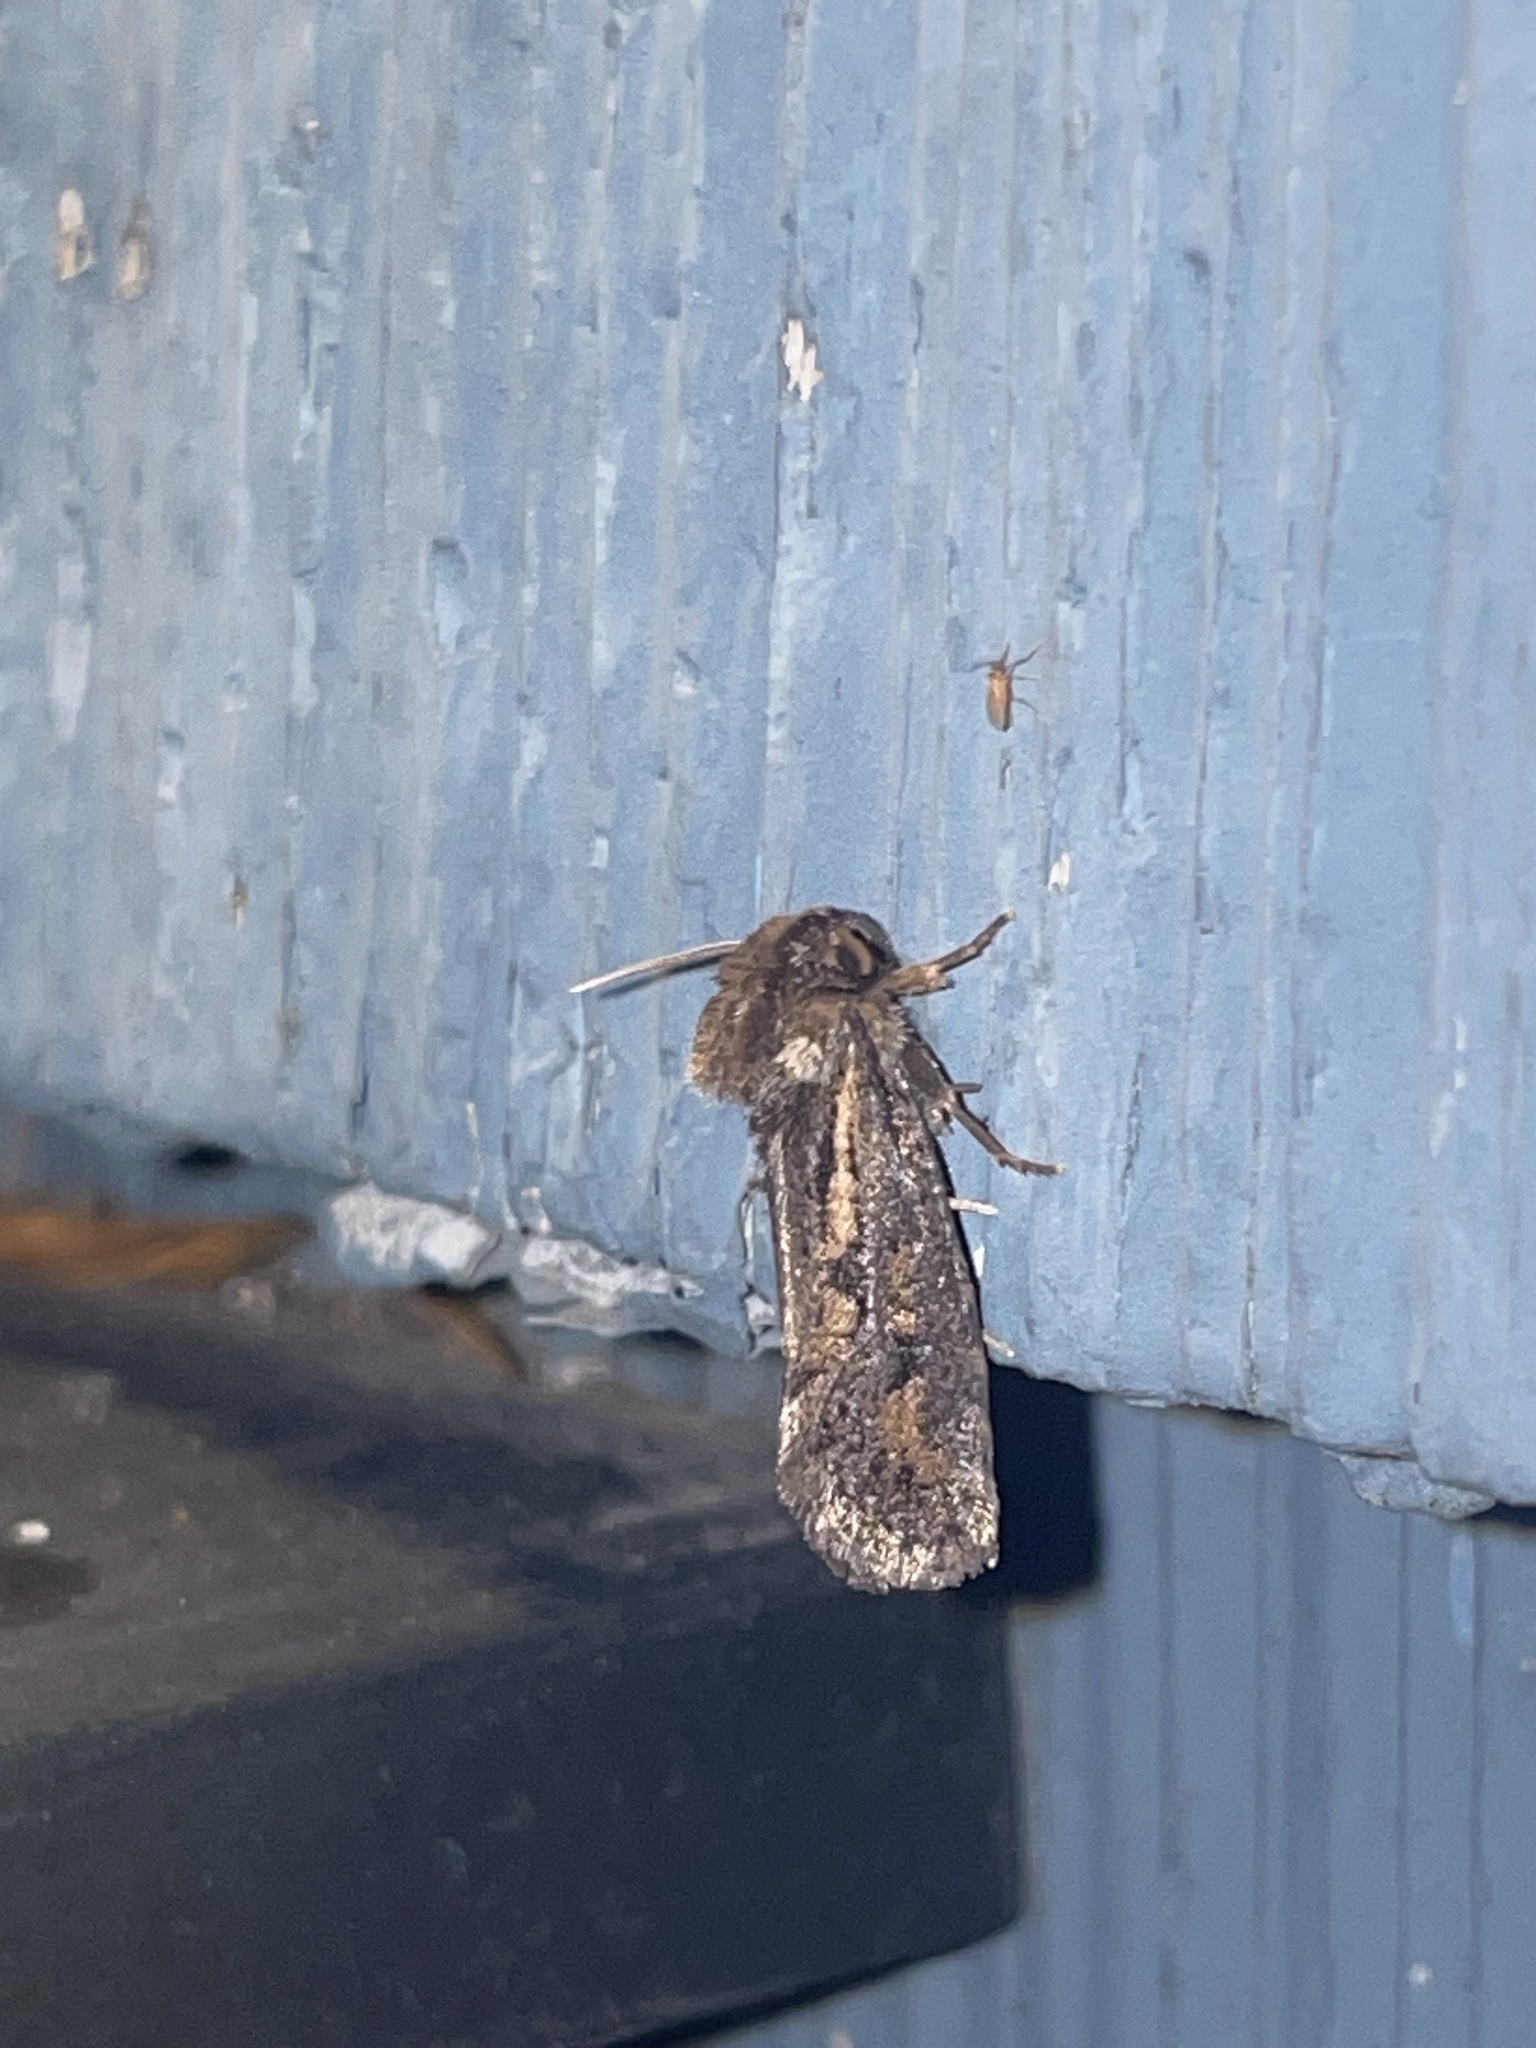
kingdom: Animalia
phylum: Arthropoda
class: Insecta
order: Lepidoptera
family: Tineidae
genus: Acrolophus
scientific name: Acrolophus popeanella
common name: Clemens' grass tubeworm moth
